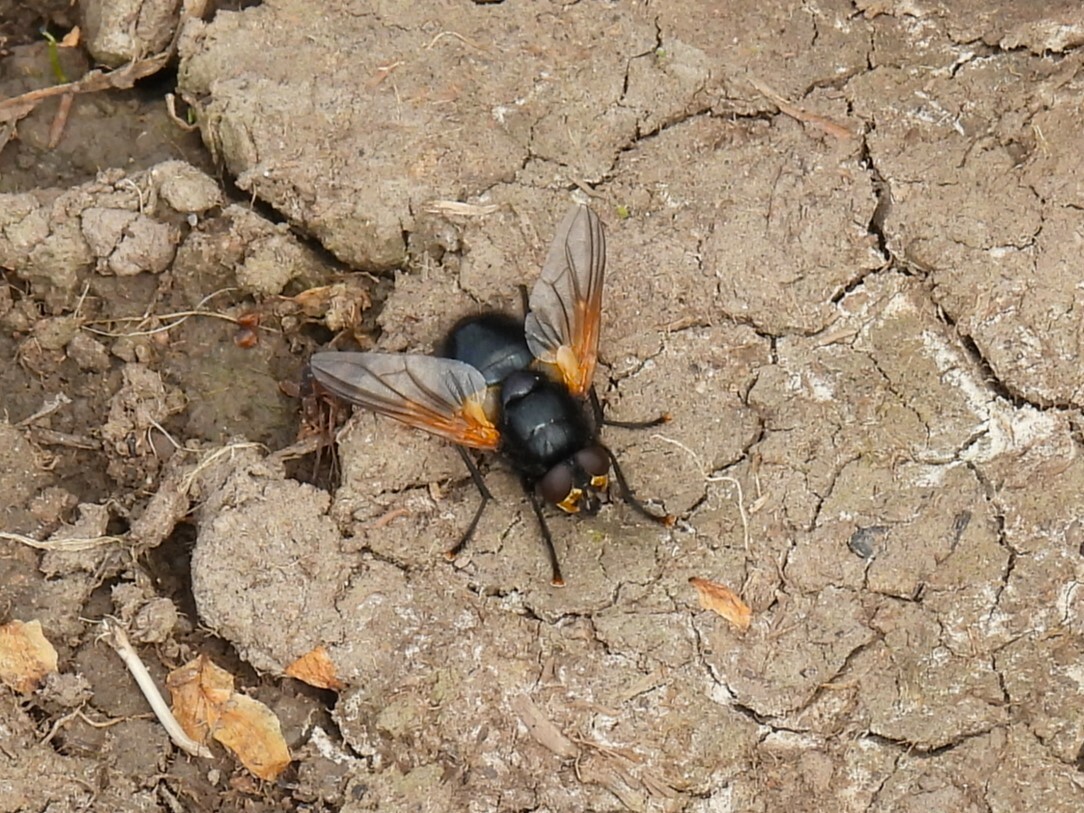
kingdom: Animalia
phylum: Arthropoda
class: Insecta
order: Diptera
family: Muscidae
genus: Mesembrina
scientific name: Mesembrina meridiana
